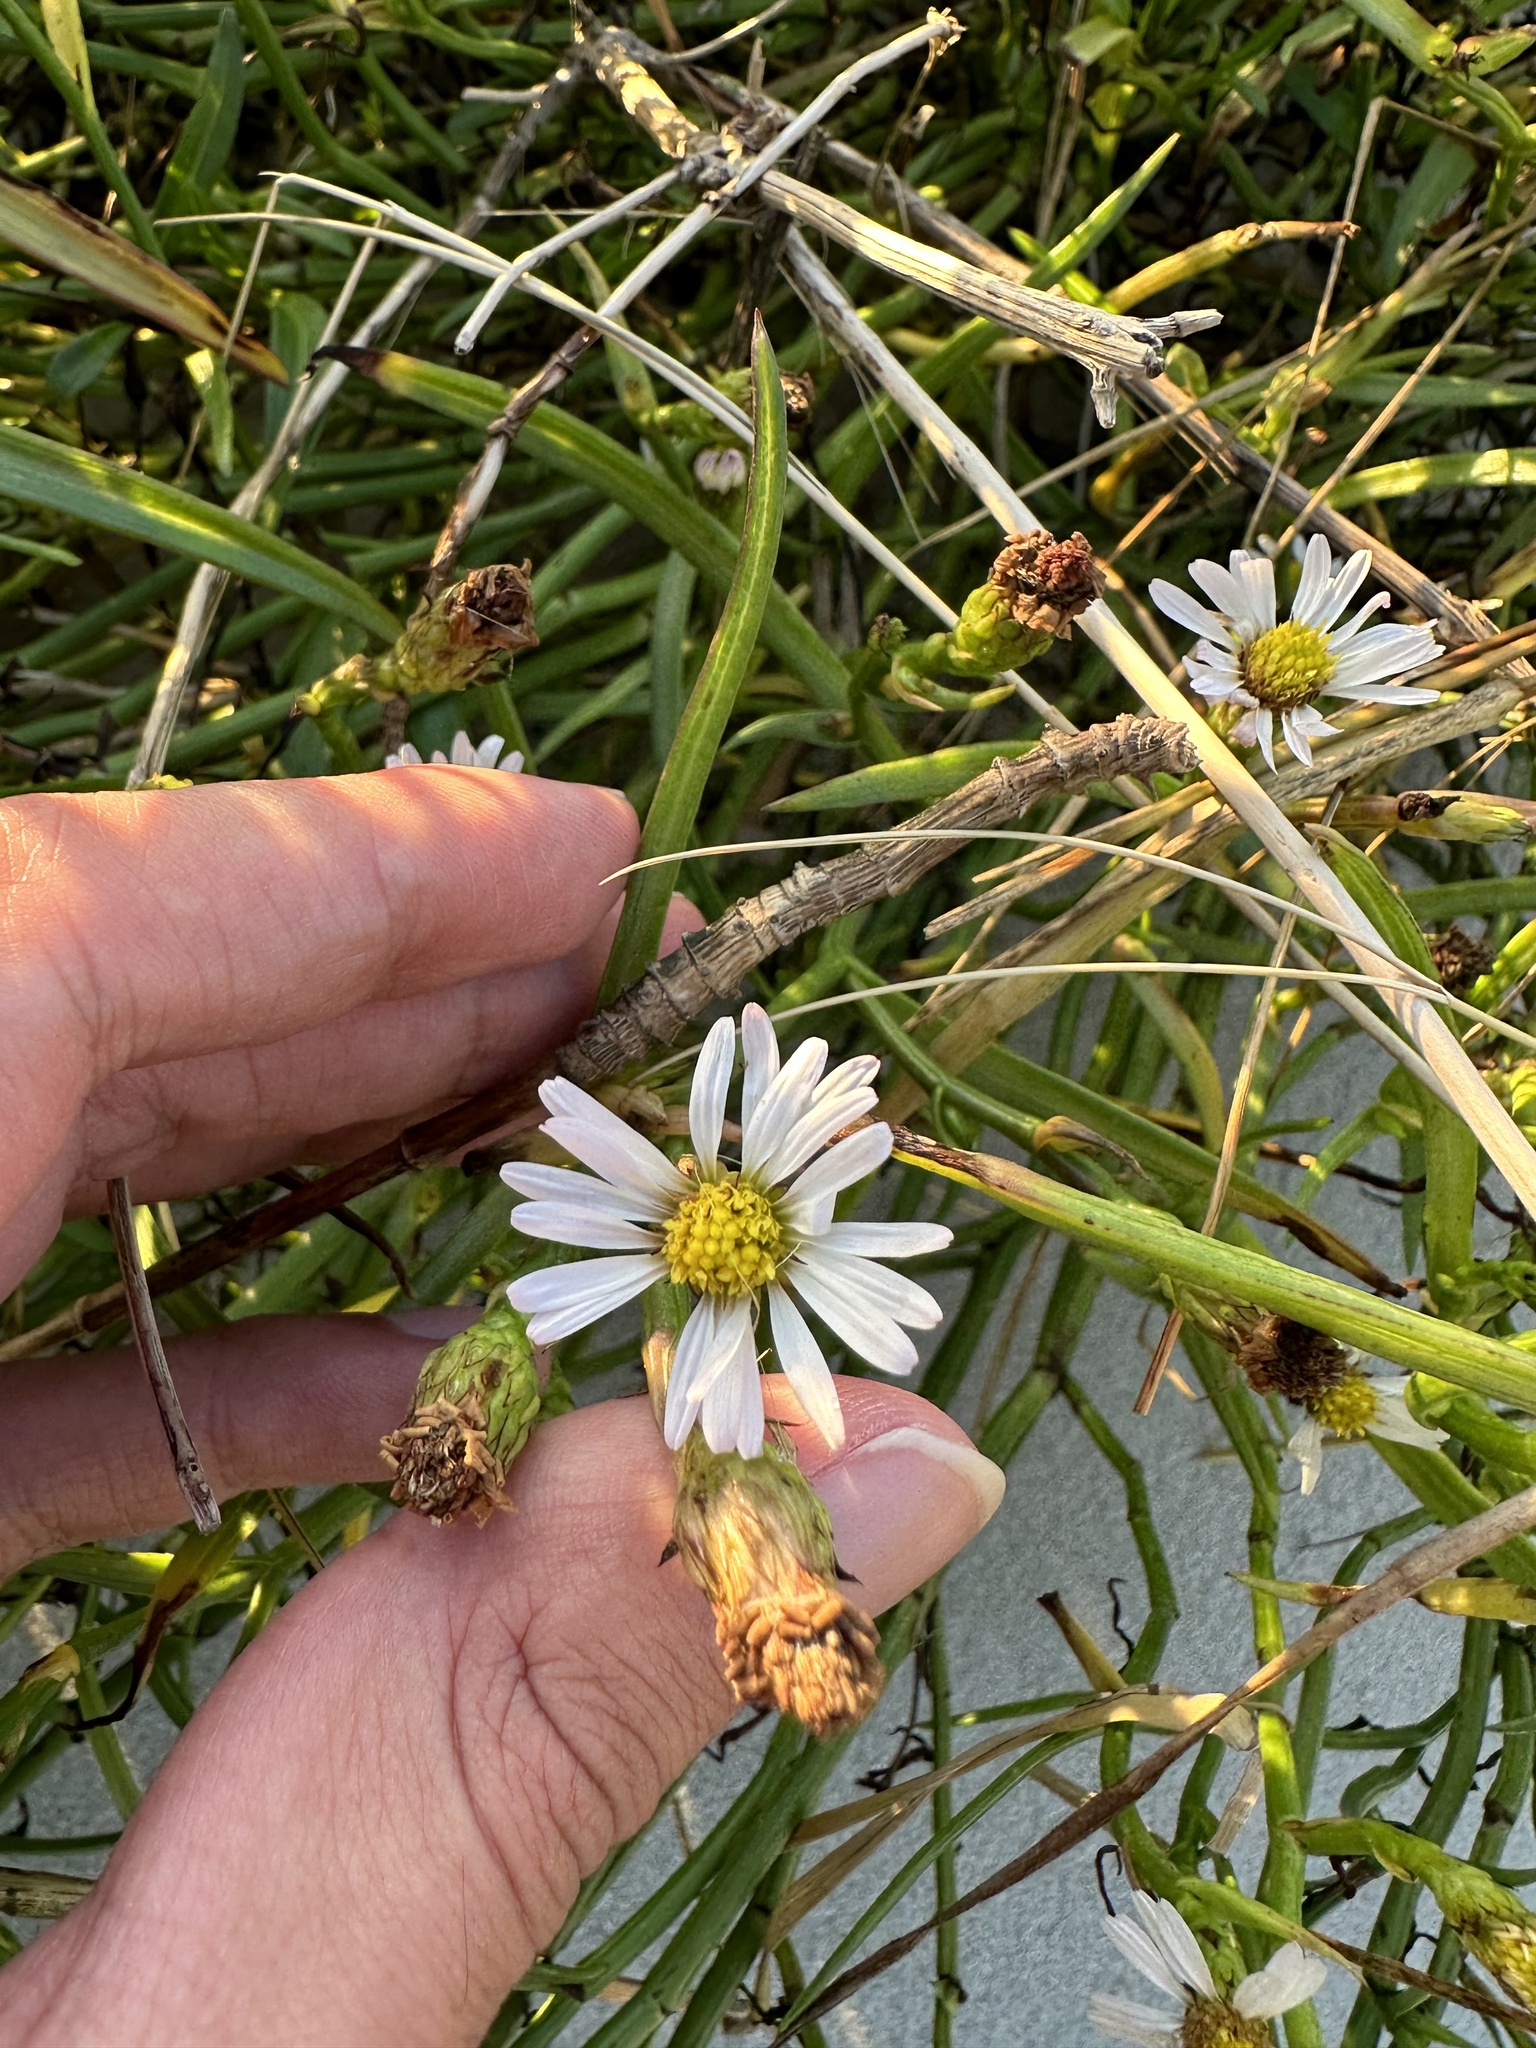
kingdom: Plantae
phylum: Tracheophyta
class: Magnoliopsida
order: Asterales
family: Asteraceae
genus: Symphyotrichum
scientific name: Symphyotrichum tenuifolium
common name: Perennial salt-marsh aster
